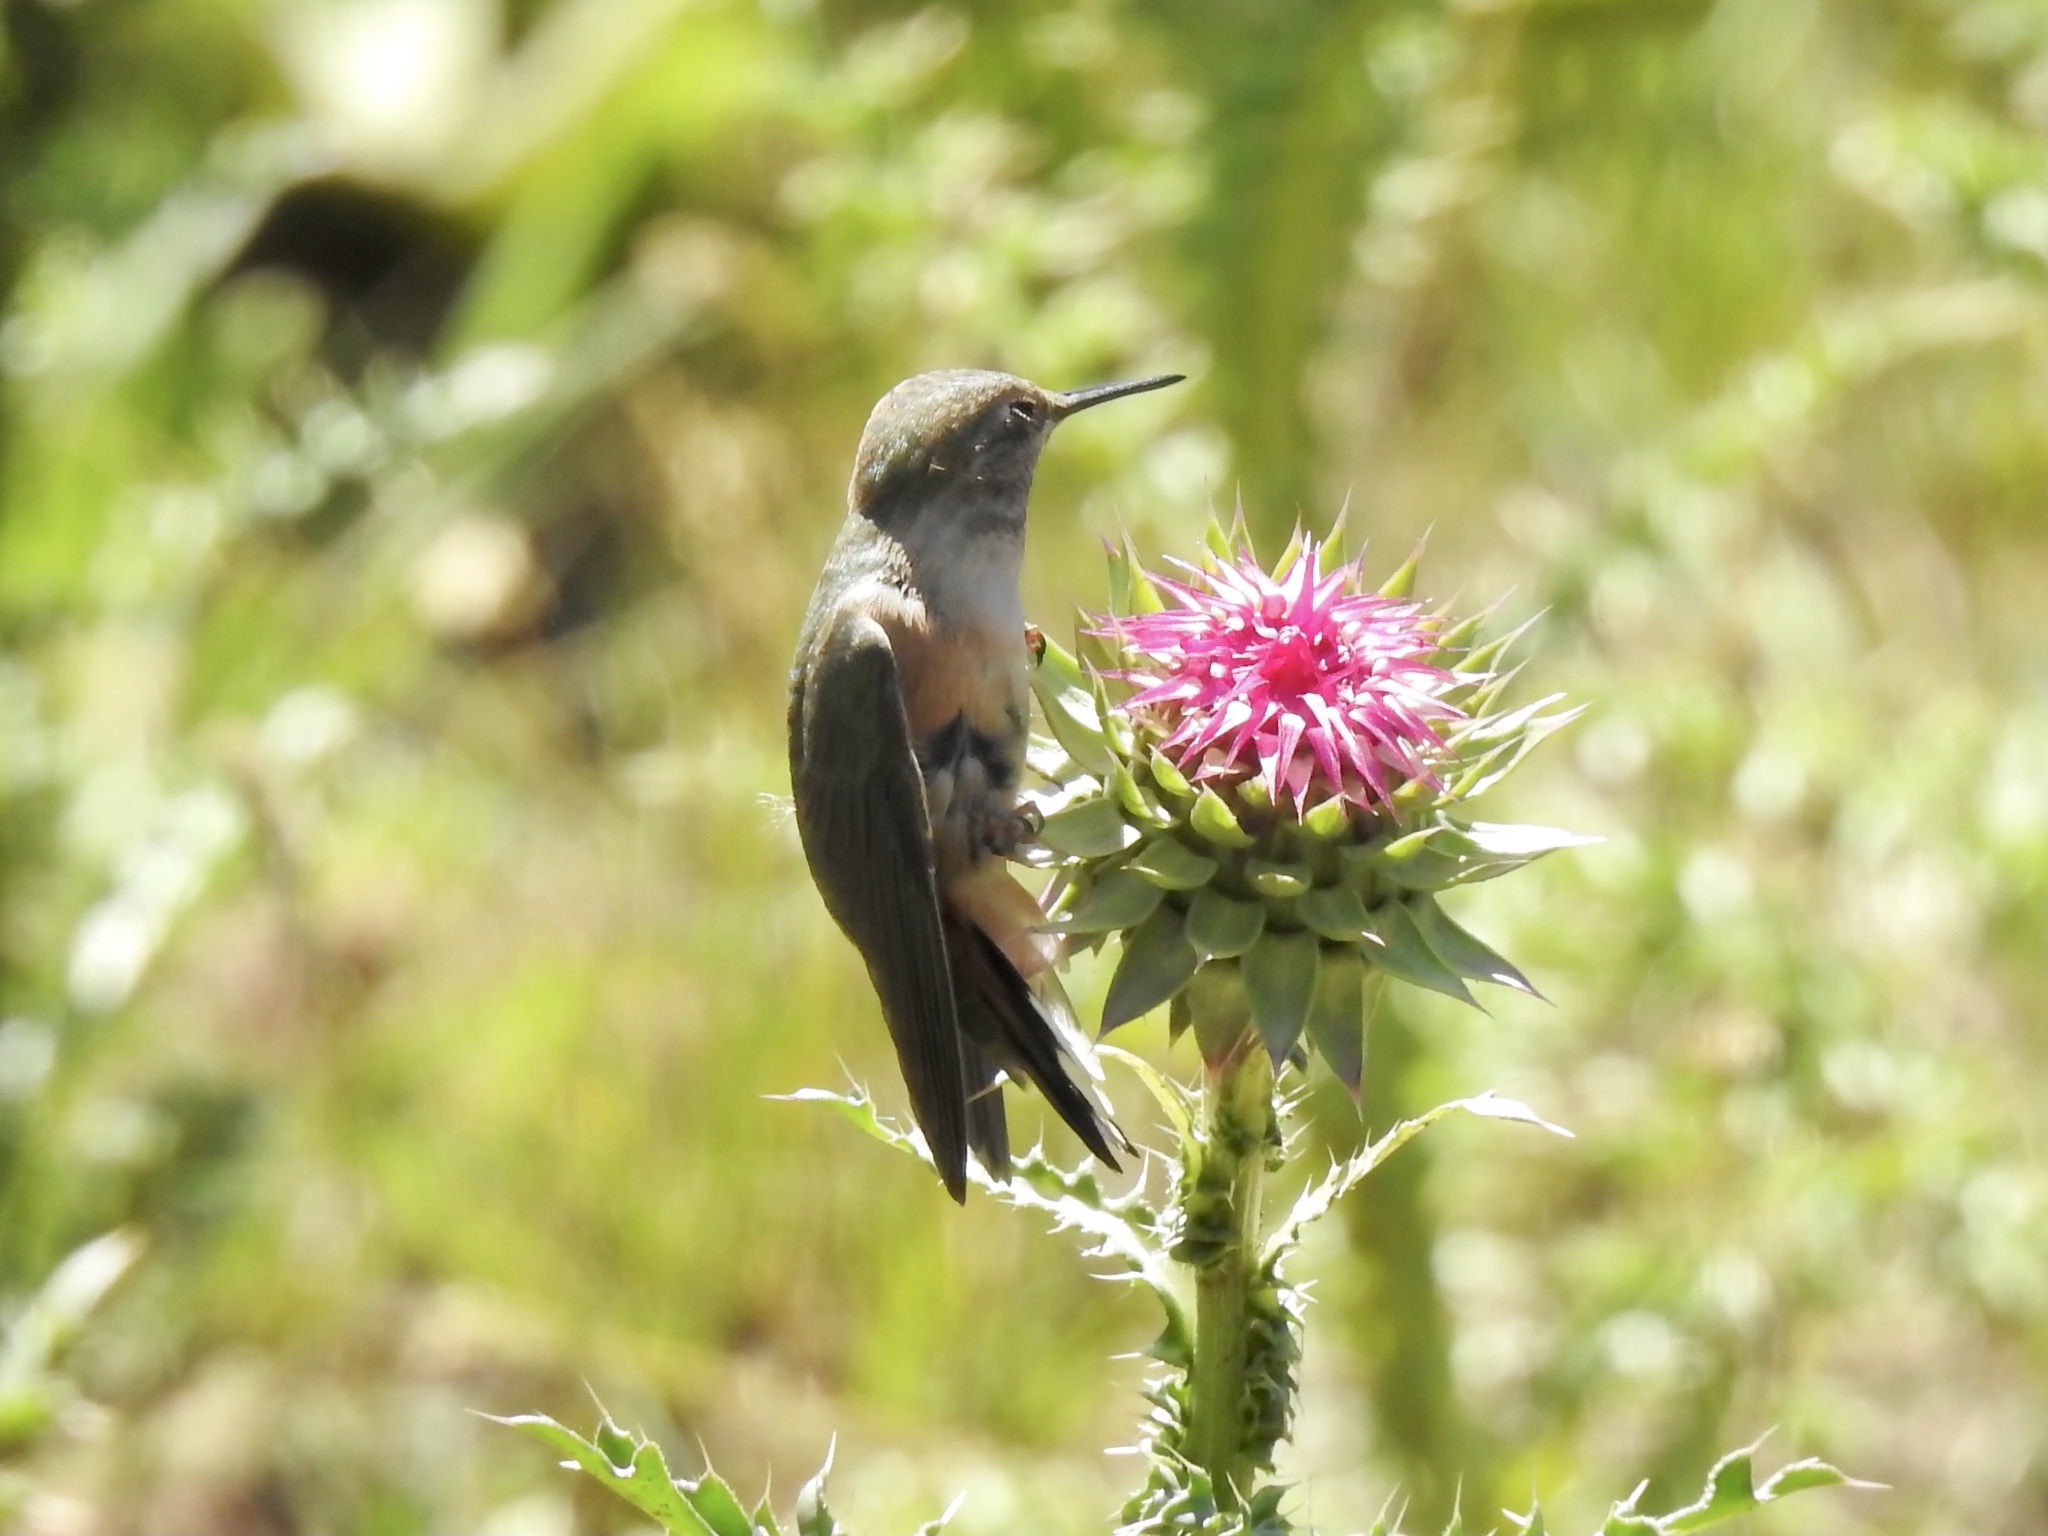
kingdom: Animalia
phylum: Chordata
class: Aves
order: Apodiformes
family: Trochilidae
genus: Selasphorus
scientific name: Selasphorus platycercus
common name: Broad-tailed hummingbird
